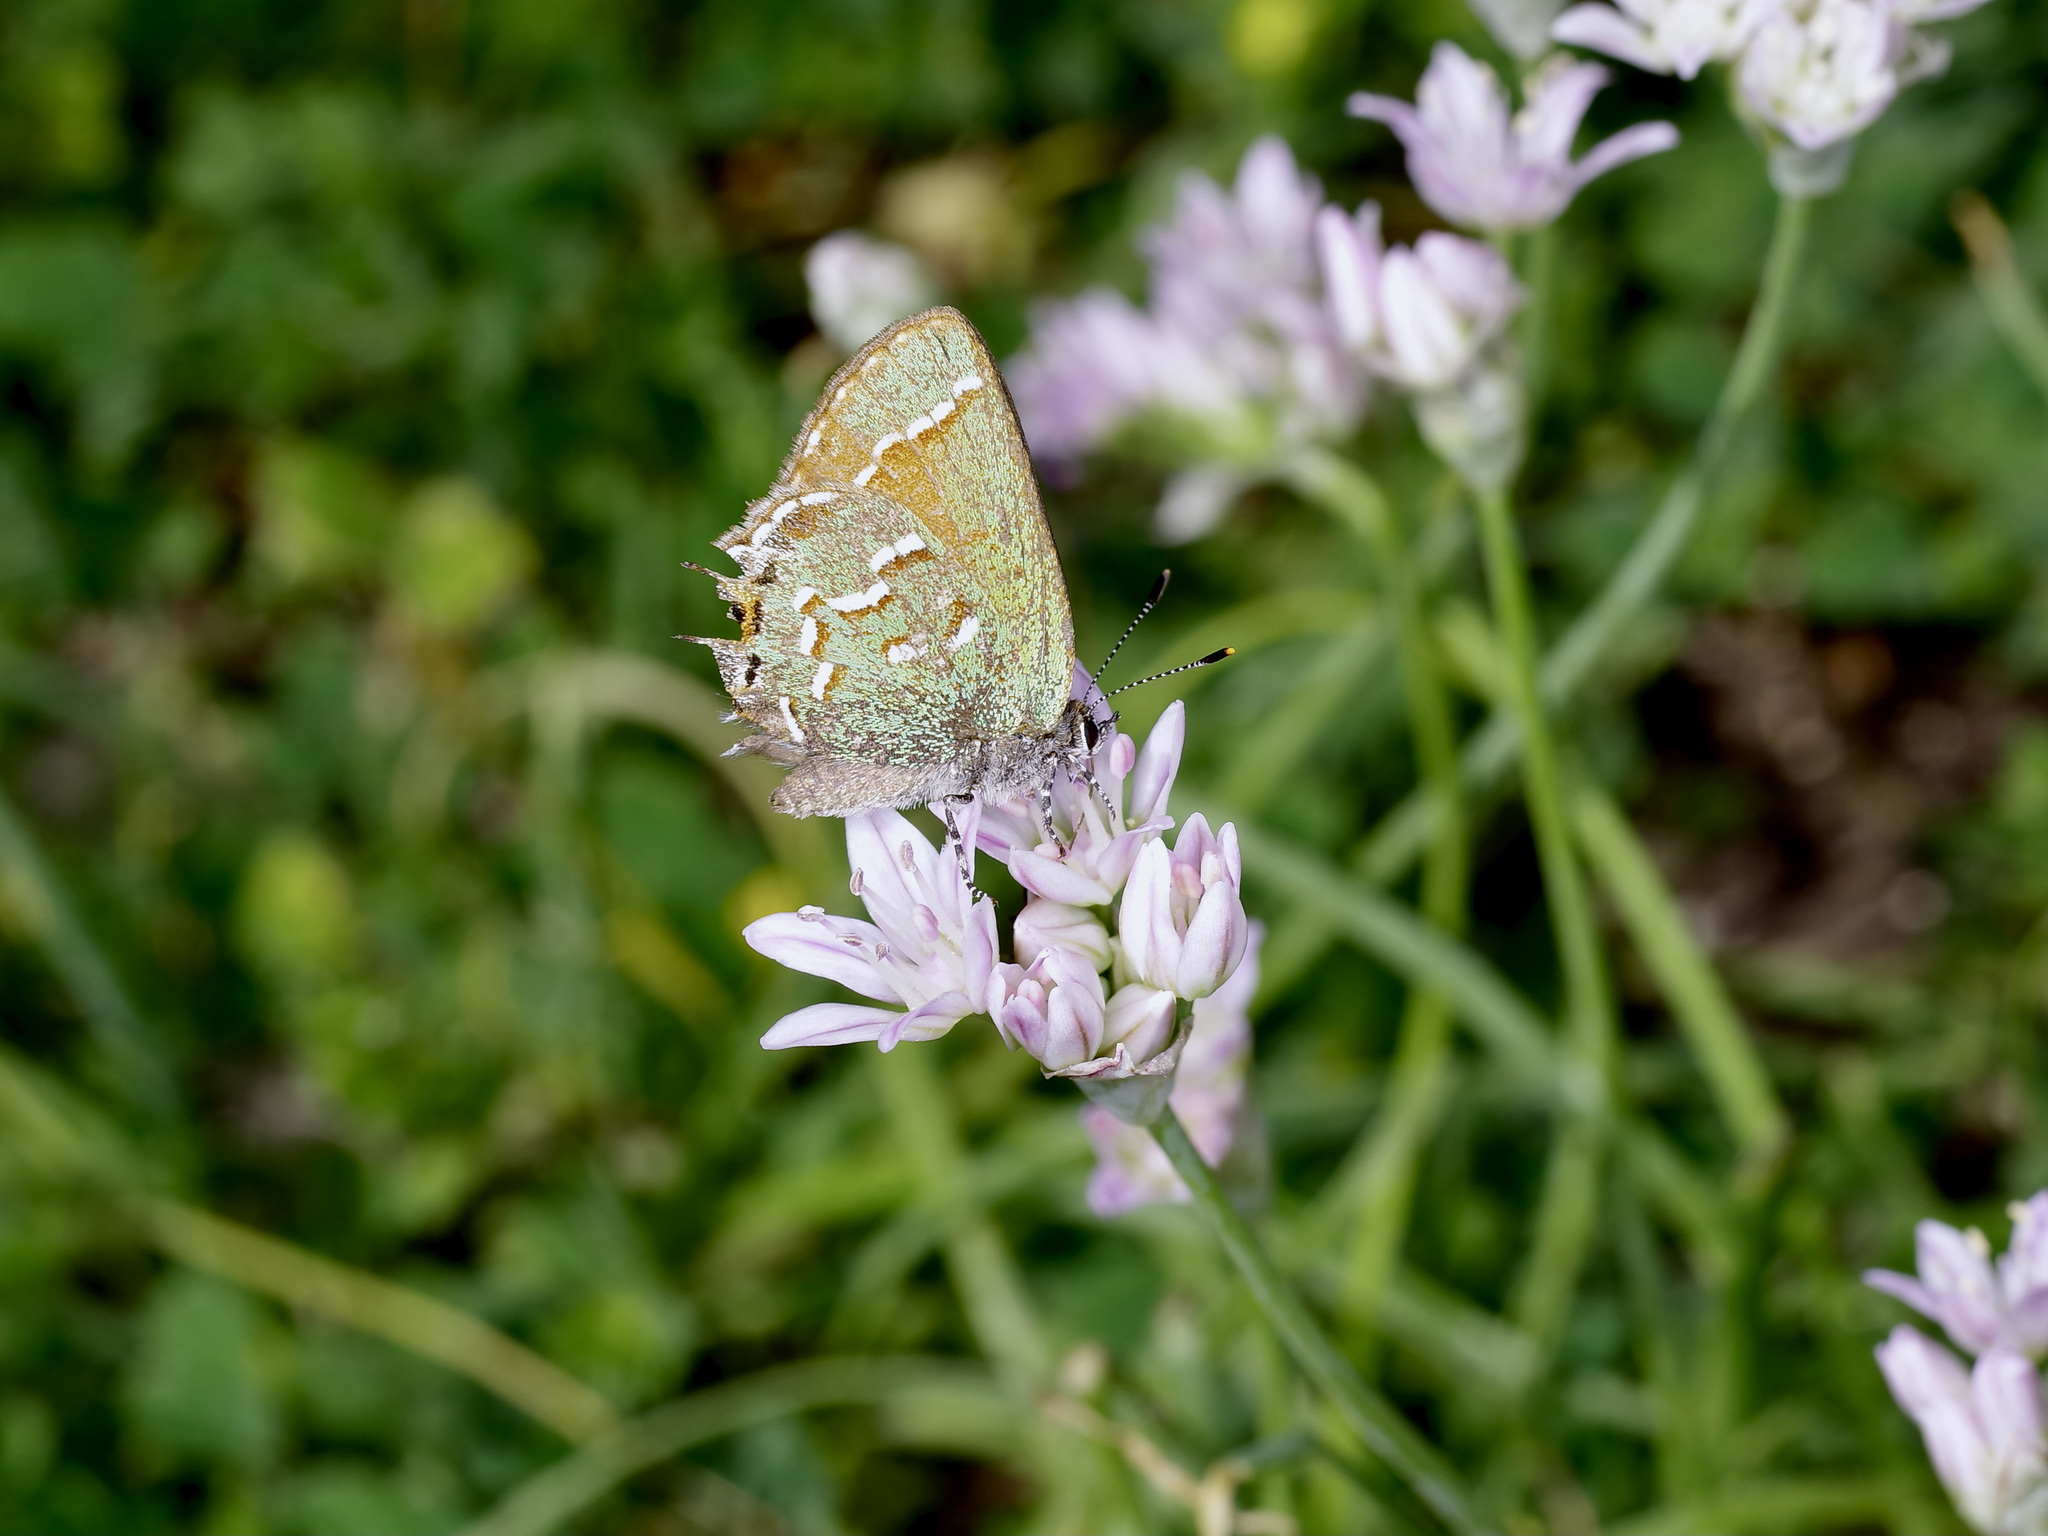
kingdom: Animalia
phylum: Arthropoda
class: Insecta
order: Lepidoptera
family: Lycaenidae
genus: Mitoura
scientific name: Mitoura gryneus
